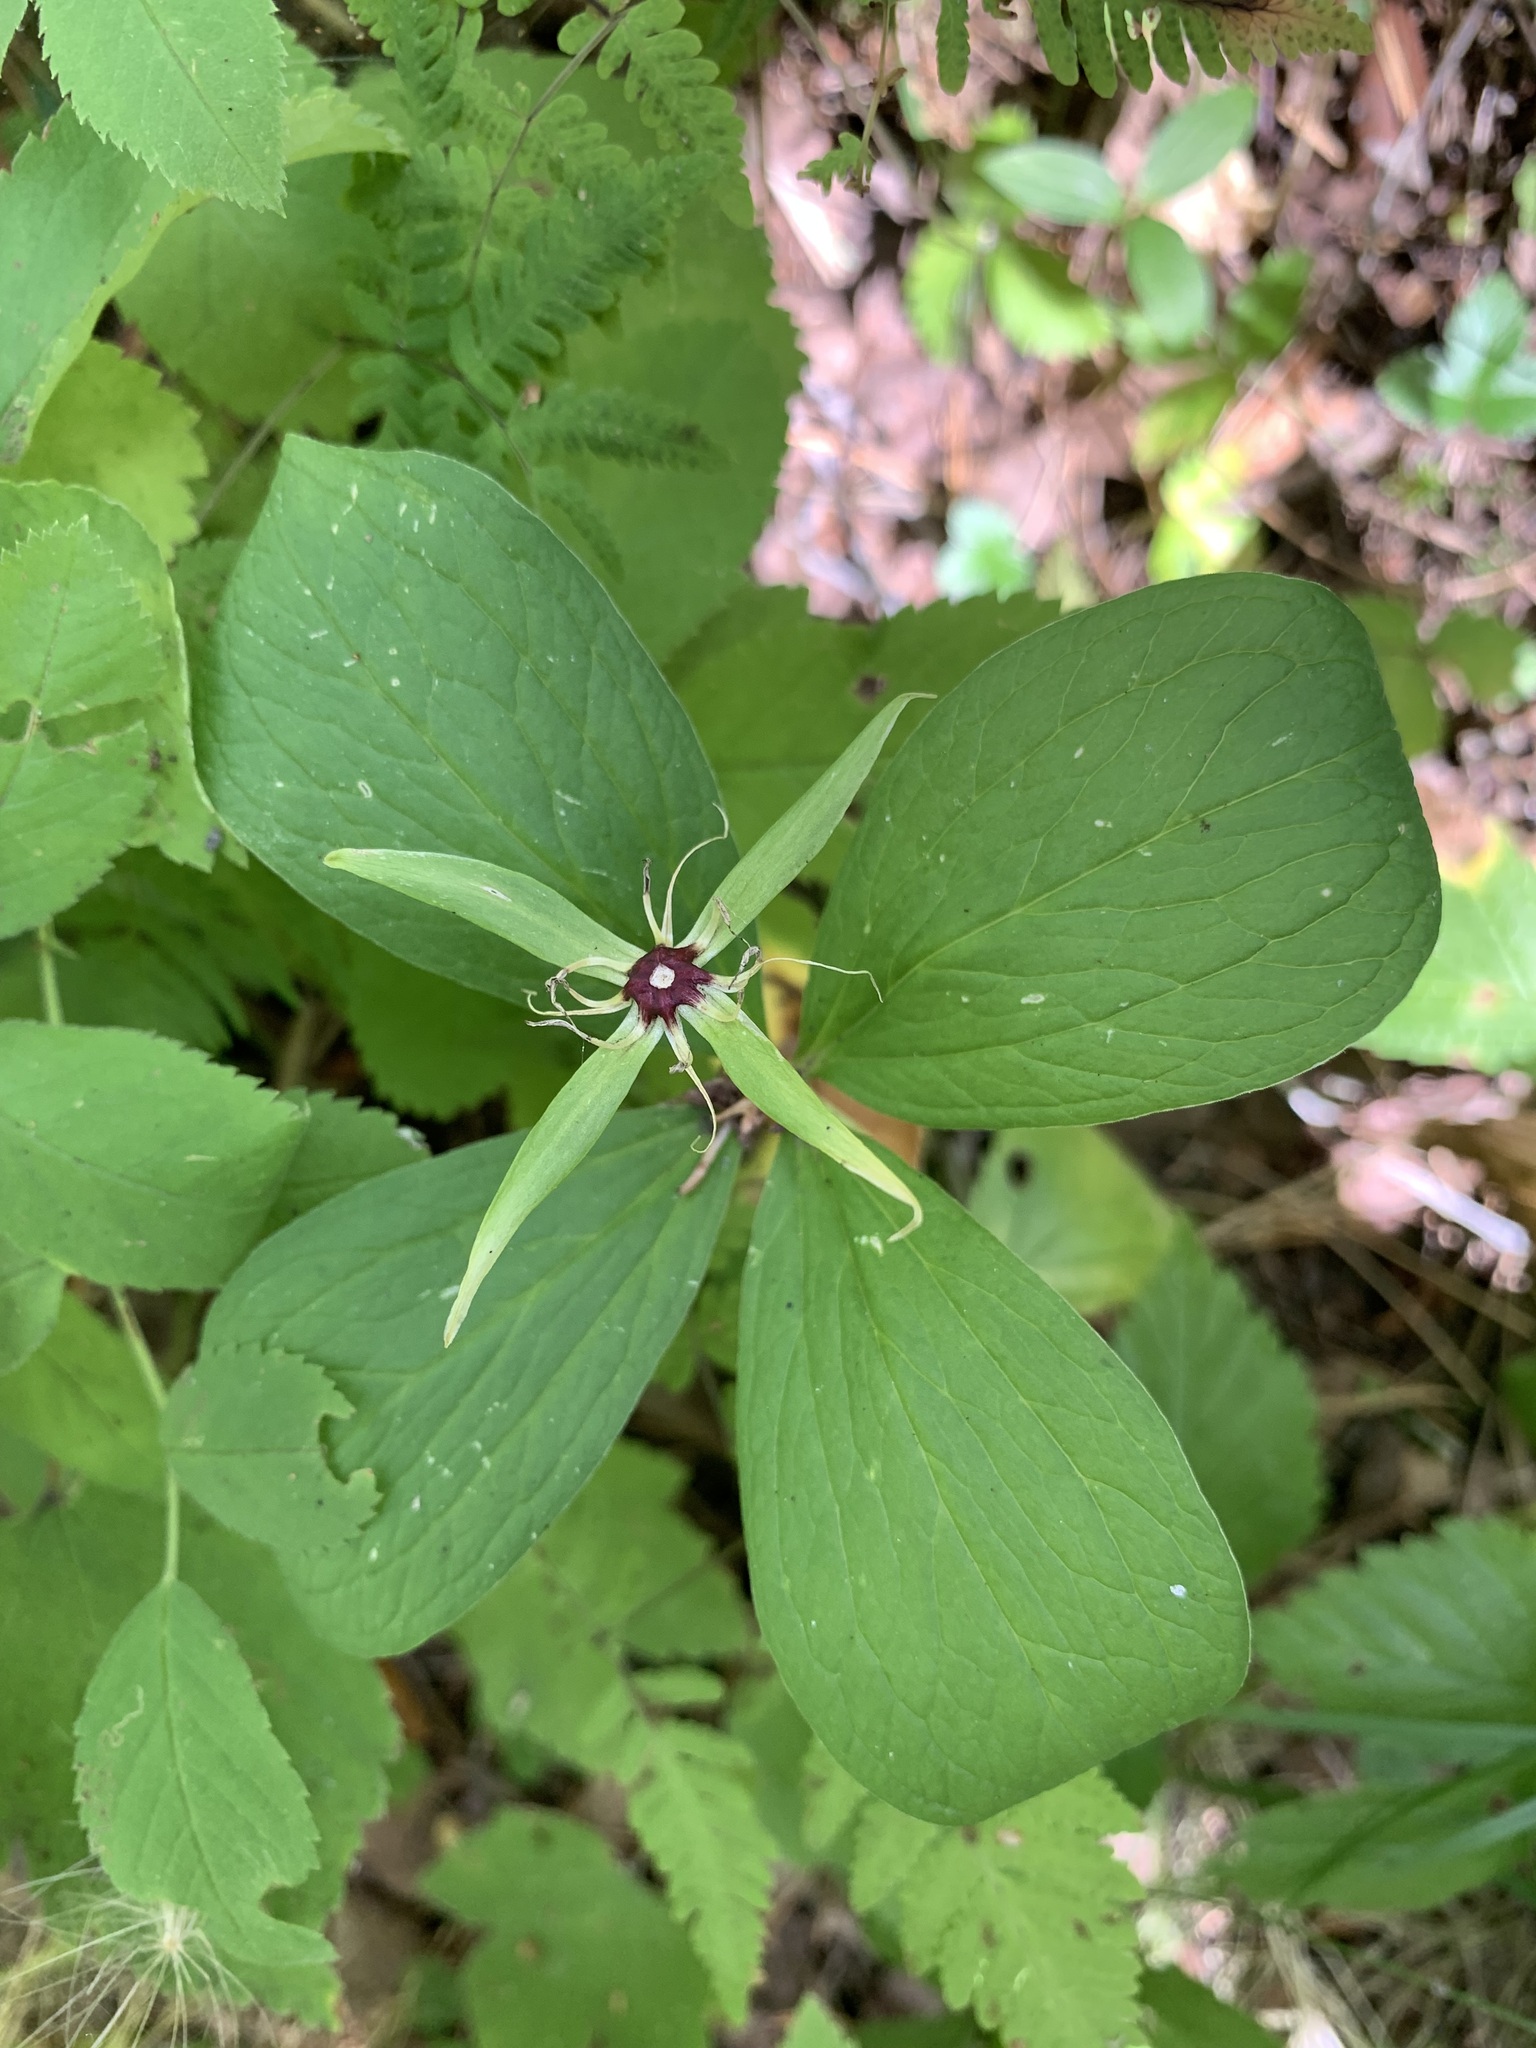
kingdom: Plantae
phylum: Tracheophyta
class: Liliopsida
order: Liliales
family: Melanthiaceae
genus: Paris
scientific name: Paris quadrifolia
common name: Herb-paris
